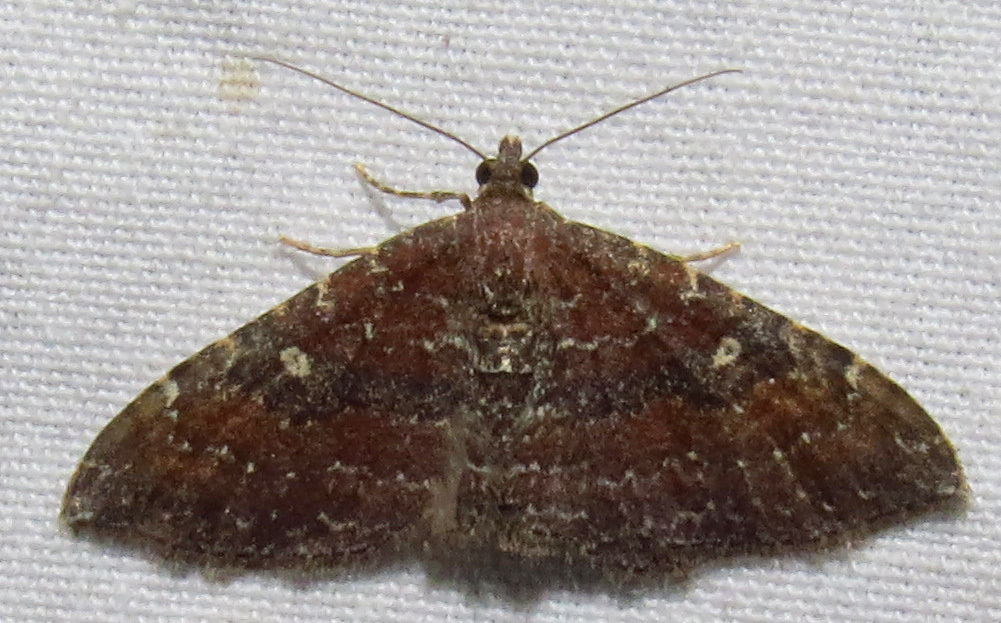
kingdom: Animalia
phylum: Arthropoda
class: Insecta
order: Lepidoptera
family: Geometridae
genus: Orthonama
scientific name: Orthonama obstipata
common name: The gem
